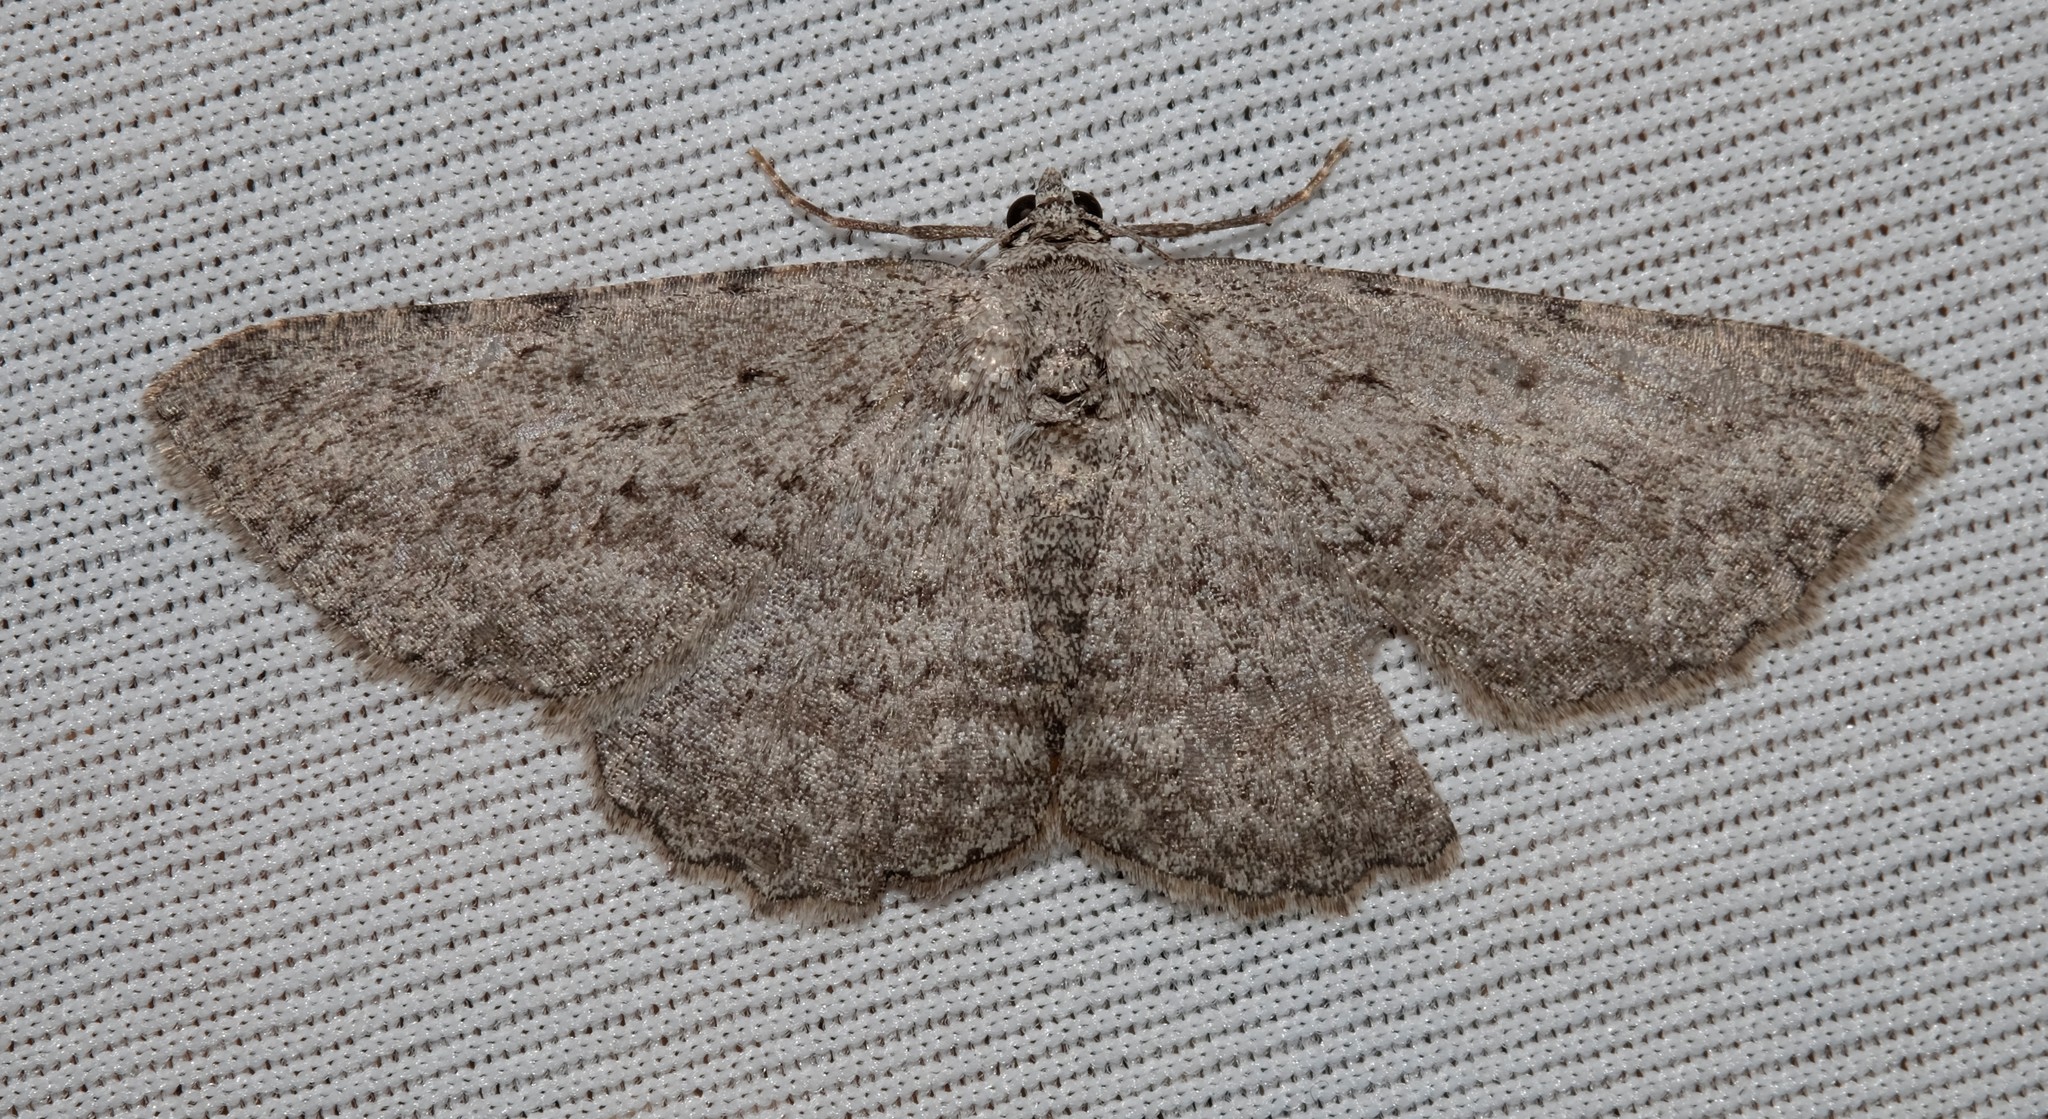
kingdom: Animalia
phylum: Arthropoda
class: Insecta
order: Lepidoptera
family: Geometridae
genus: Psilosticha
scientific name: Psilosticha absorpta
